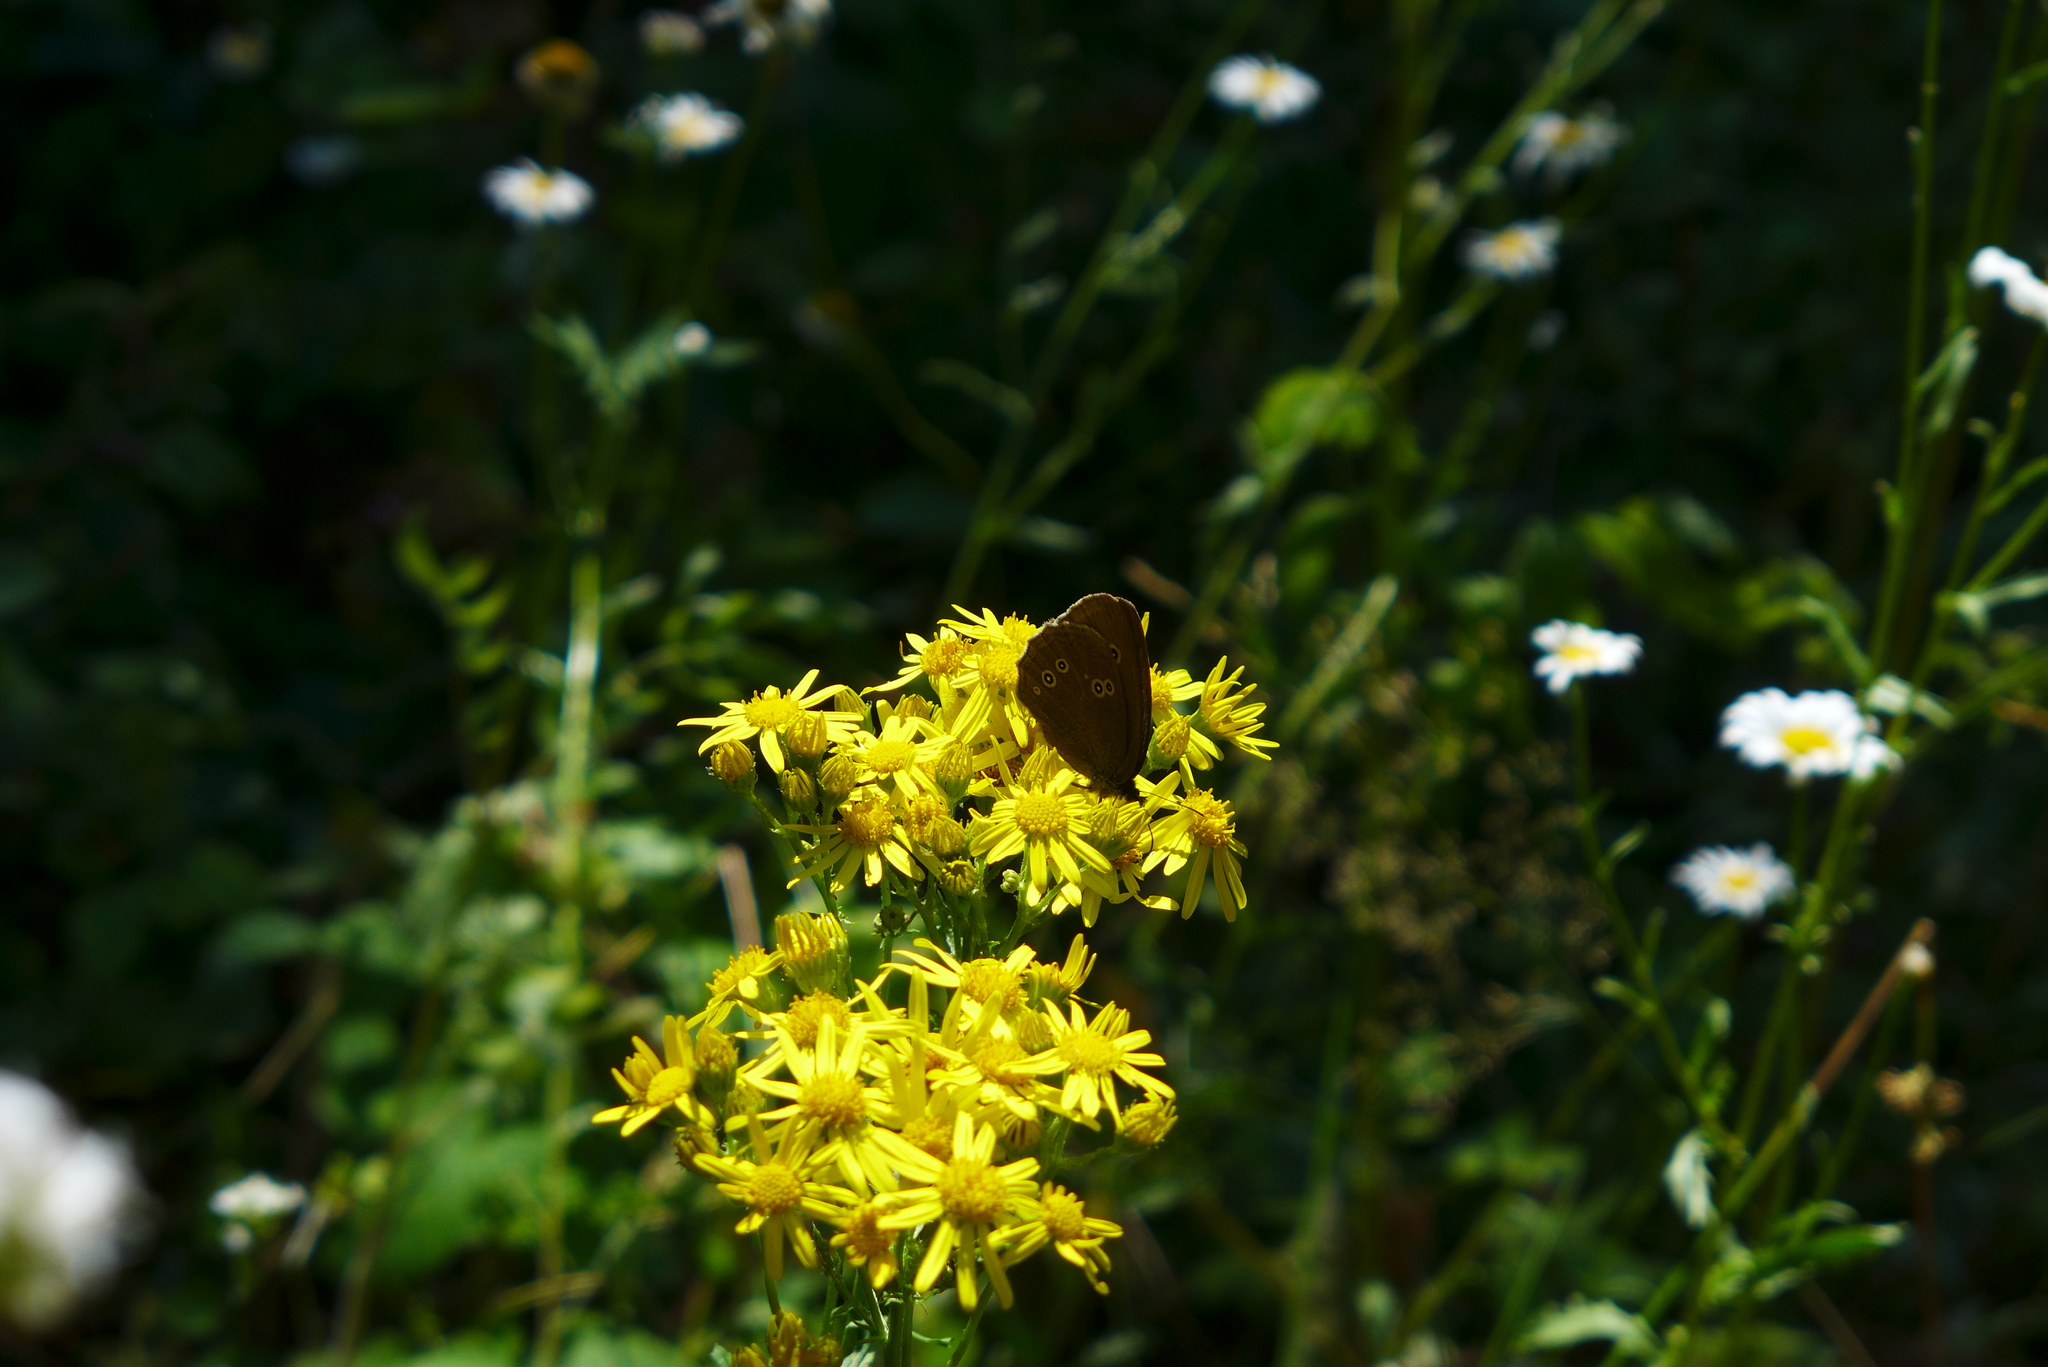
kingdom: Animalia
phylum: Arthropoda
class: Insecta
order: Lepidoptera
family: Nymphalidae
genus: Aphantopus
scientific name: Aphantopus hyperantus
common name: Ringlet
